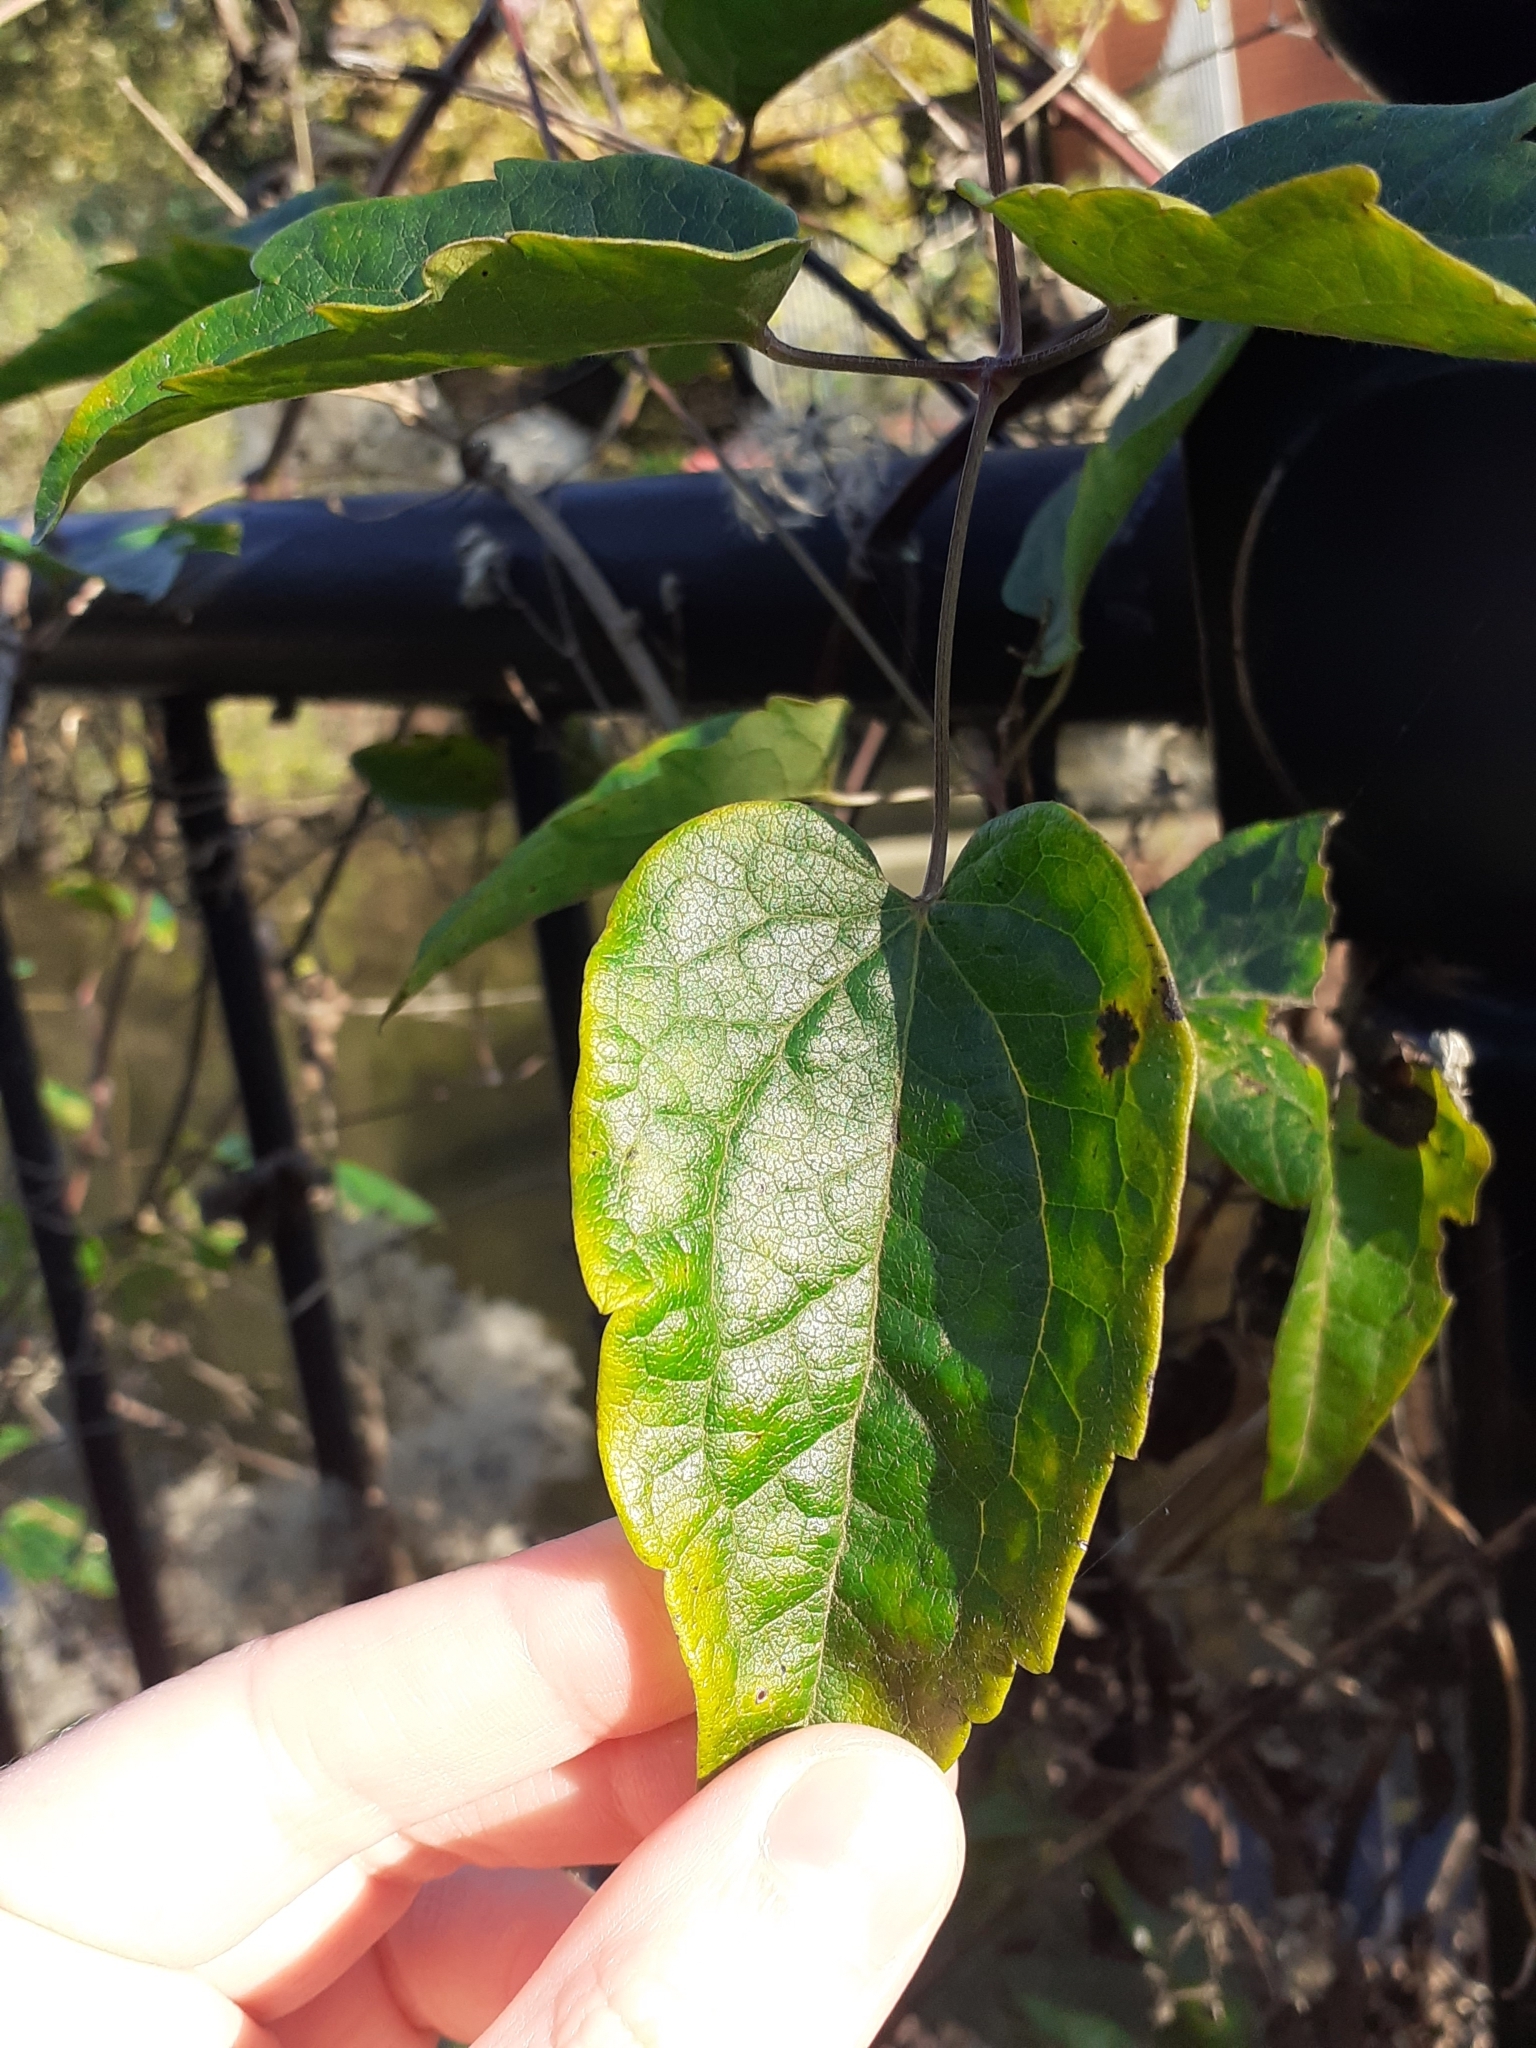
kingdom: Plantae
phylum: Tracheophyta
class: Magnoliopsida
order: Ranunculales
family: Ranunculaceae
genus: Clematis
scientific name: Clematis vitalba
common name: Evergreen clematis
